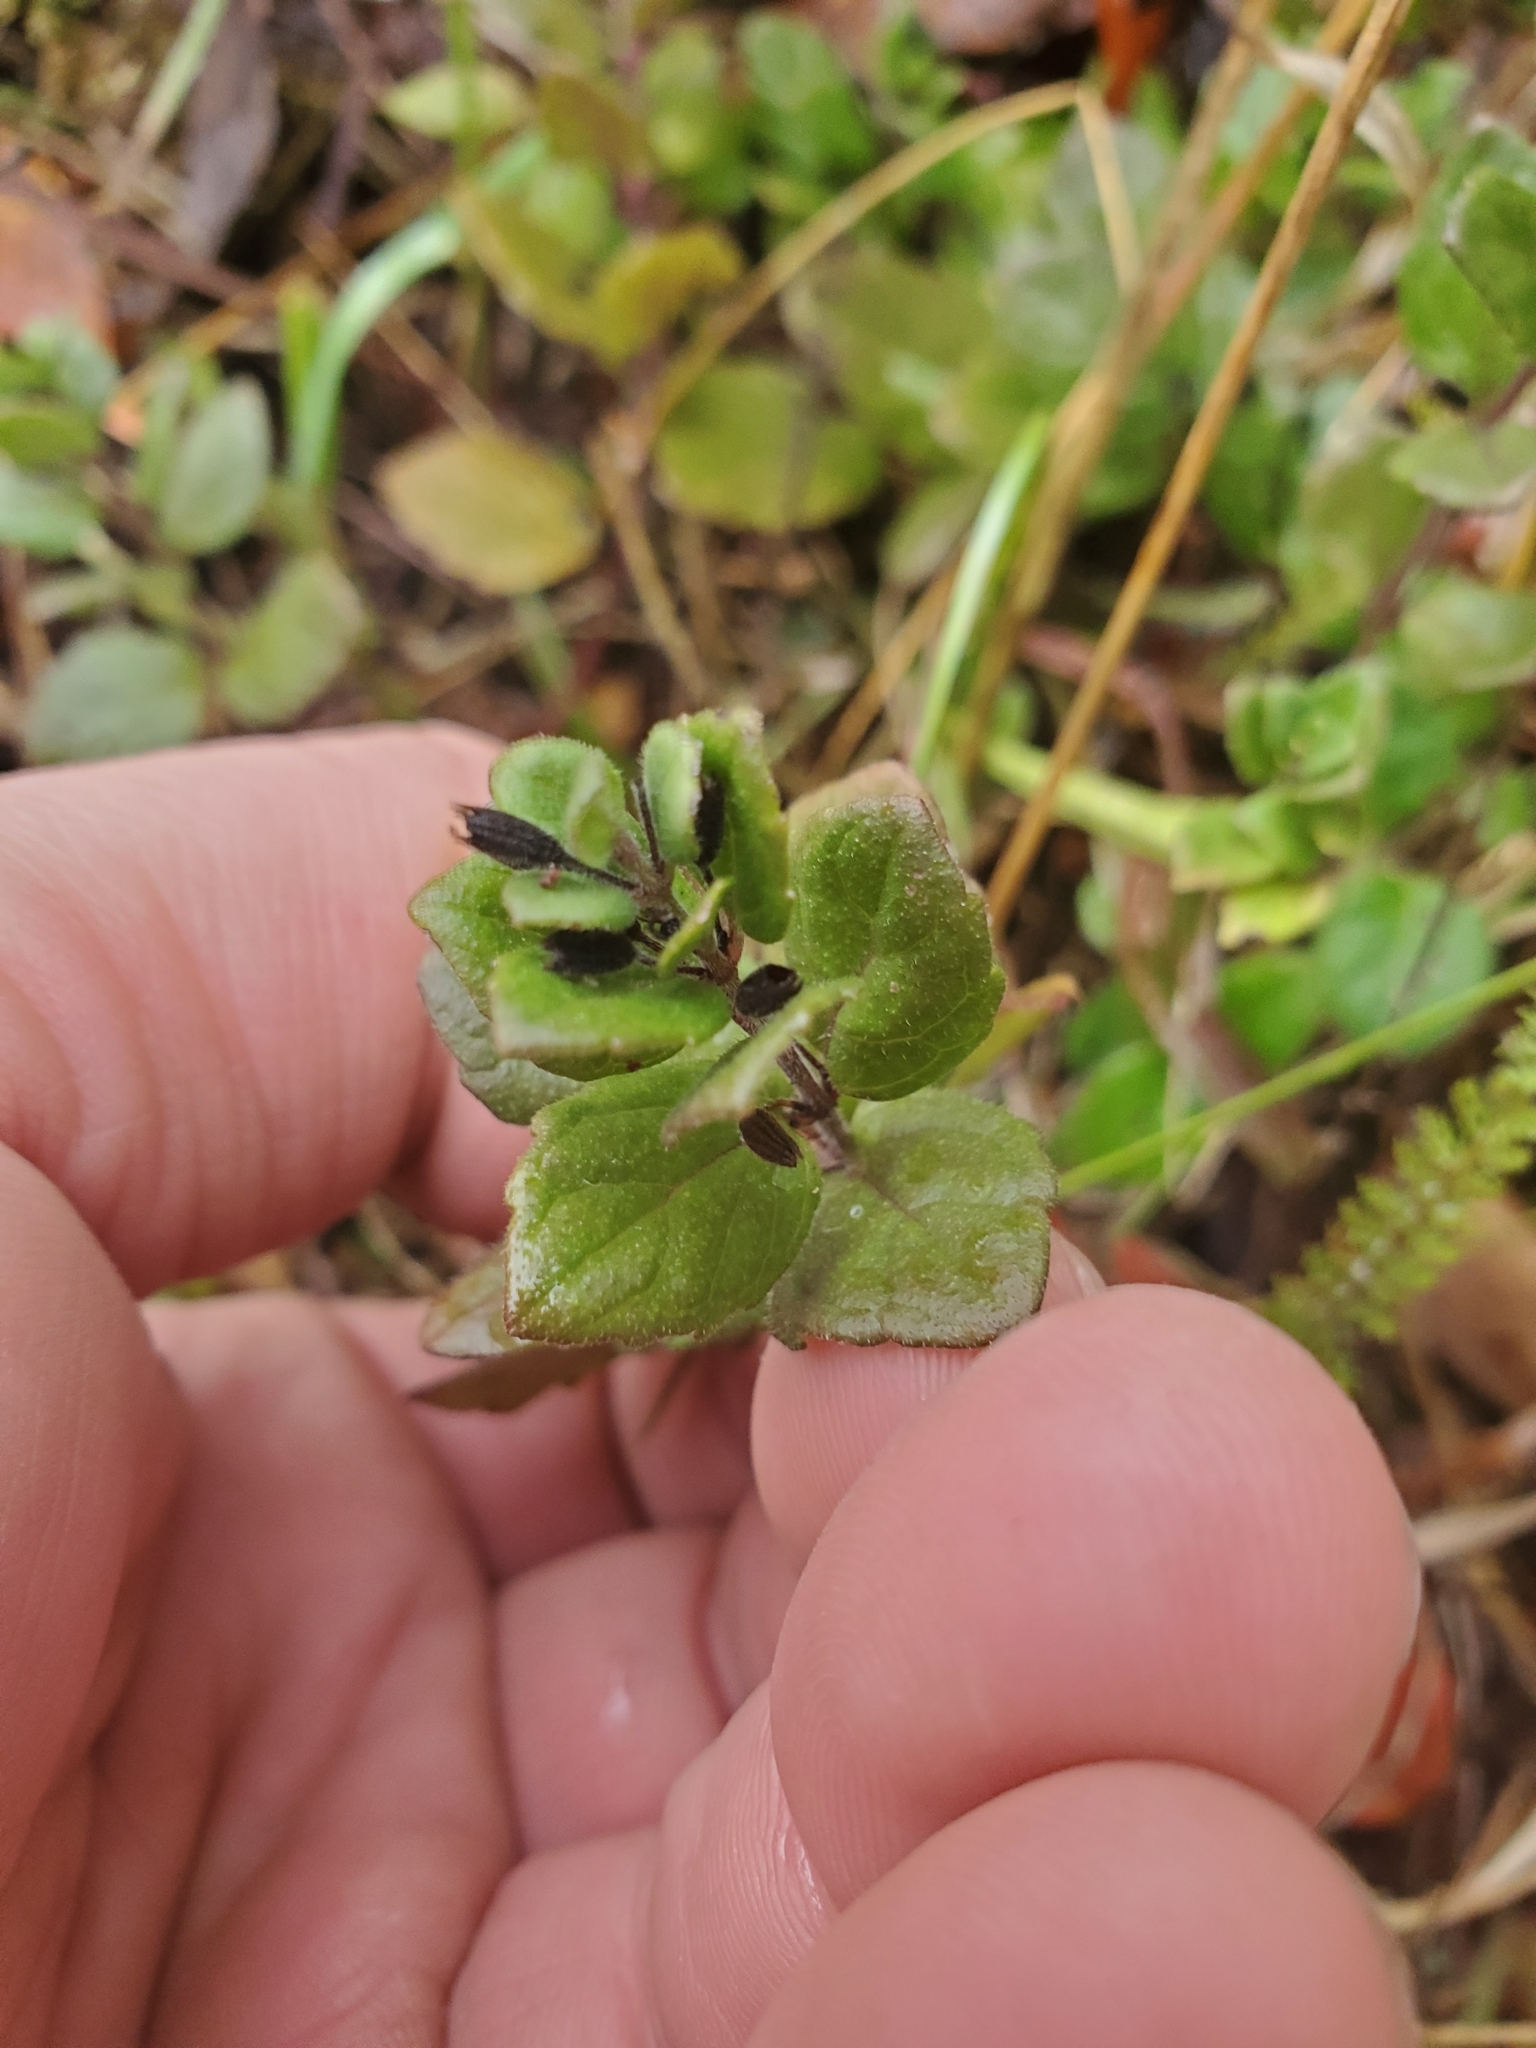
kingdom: Plantae
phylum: Tracheophyta
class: Magnoliopsida
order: Lamiales
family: Lamiaceae
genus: Micromeria
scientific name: Micromeria douglasii
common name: Yerba buena
